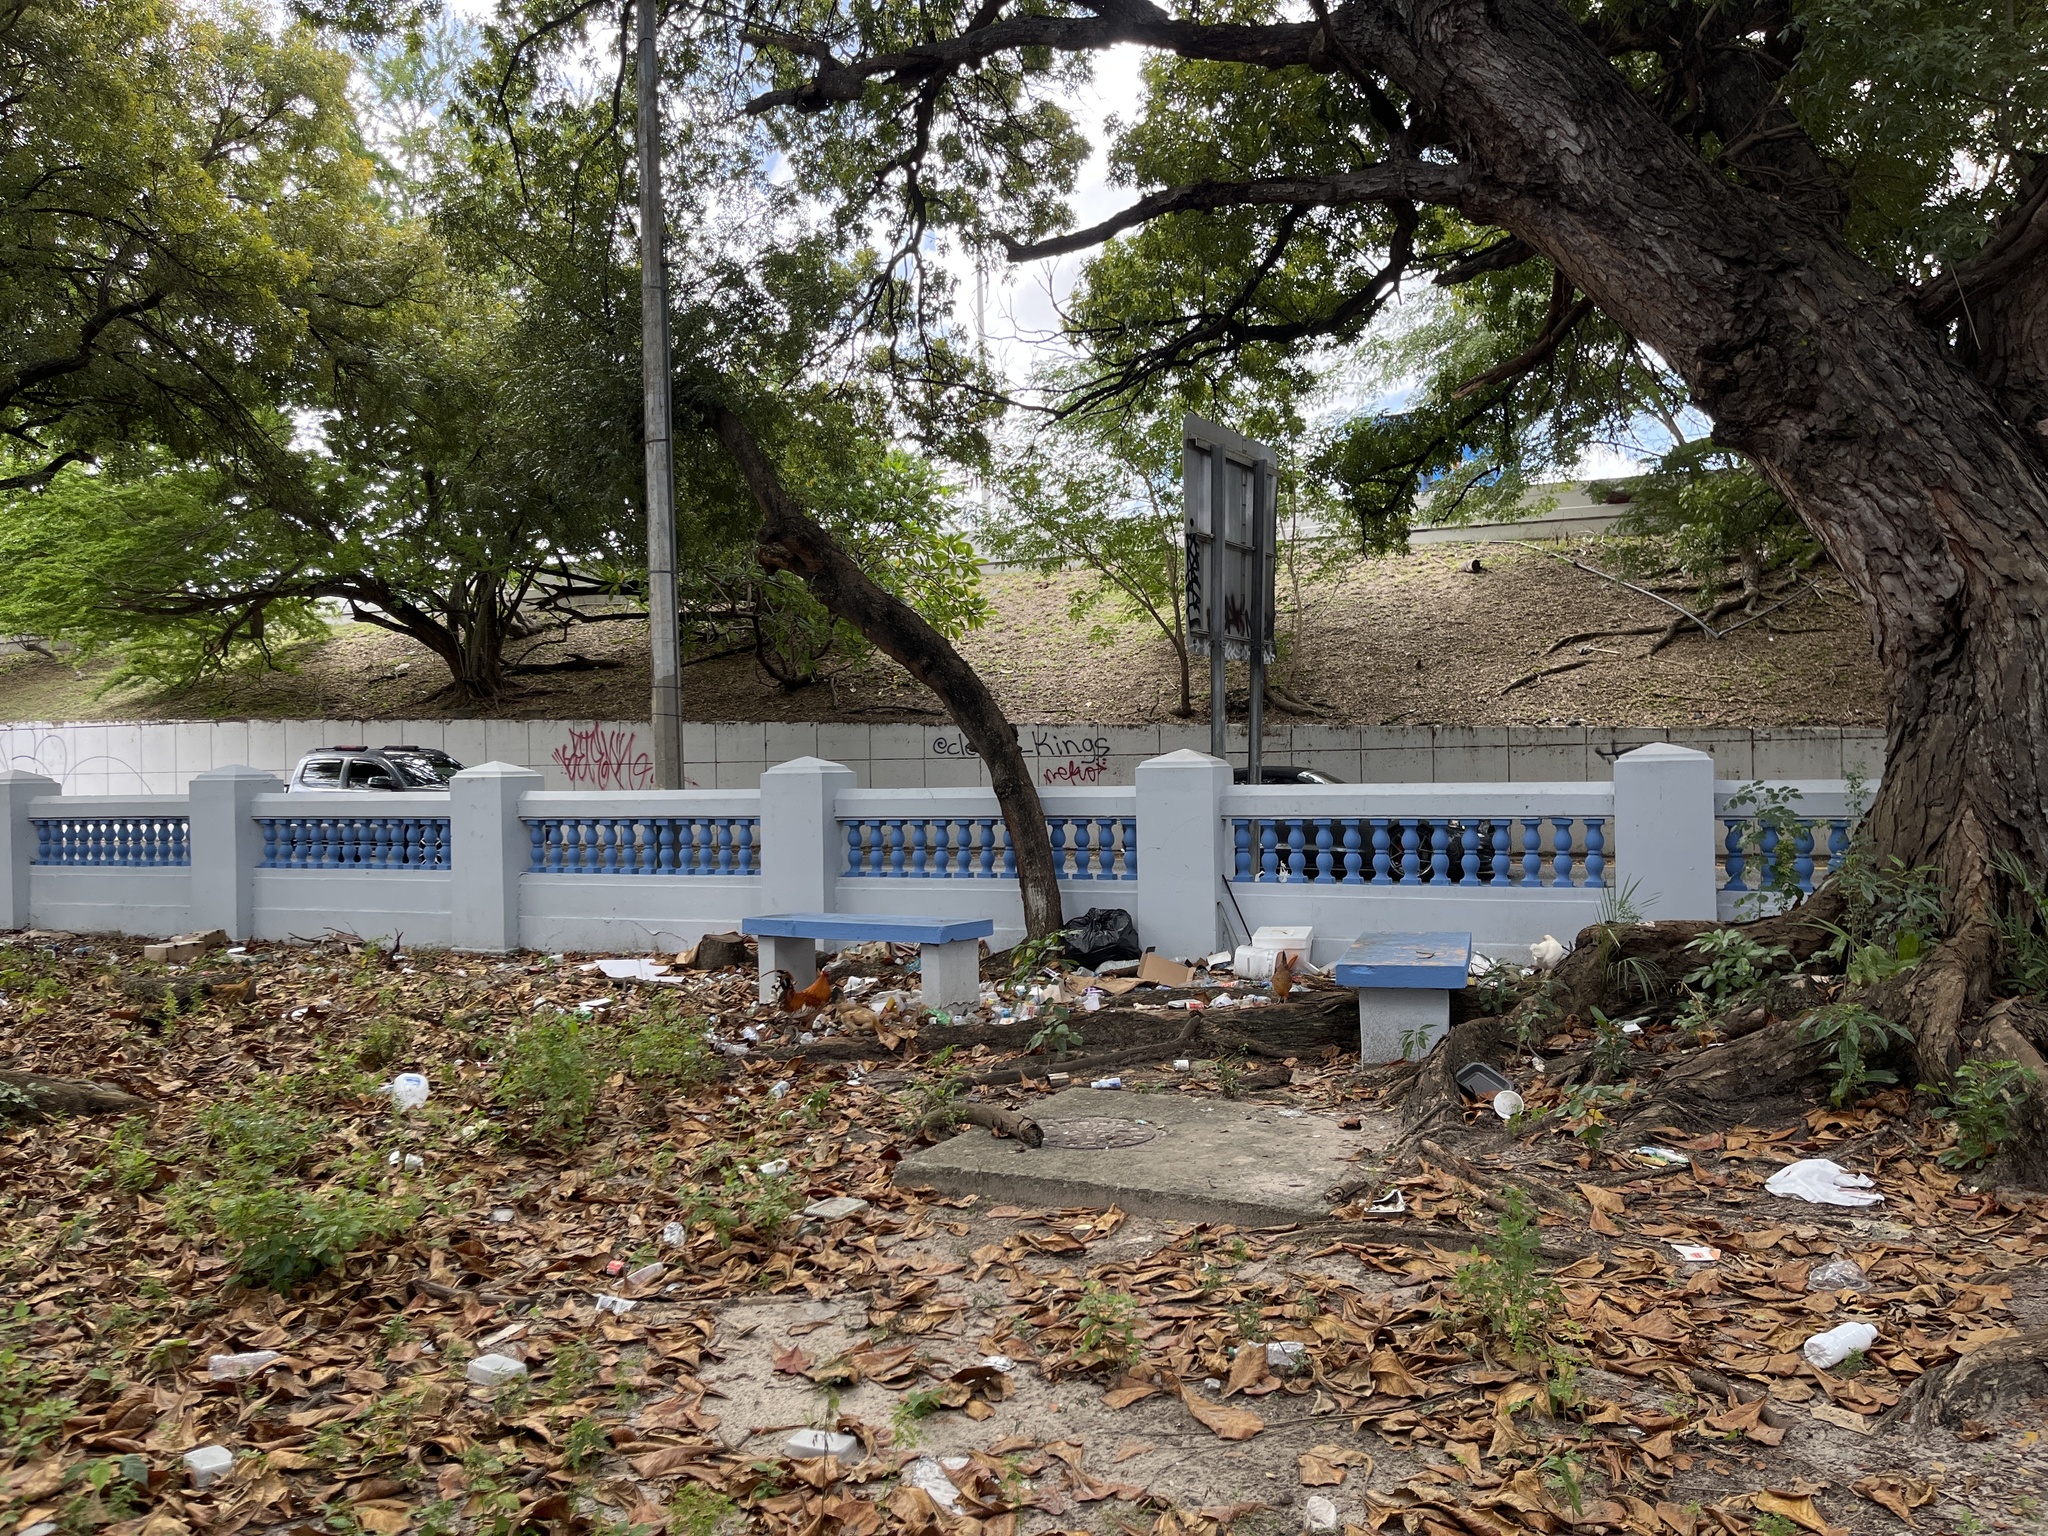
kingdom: Animalia
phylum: Chordata
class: Aves
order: Galliformes
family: Phasianidae
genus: Gallus
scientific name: Gallus gallus
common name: Red junglefowl
